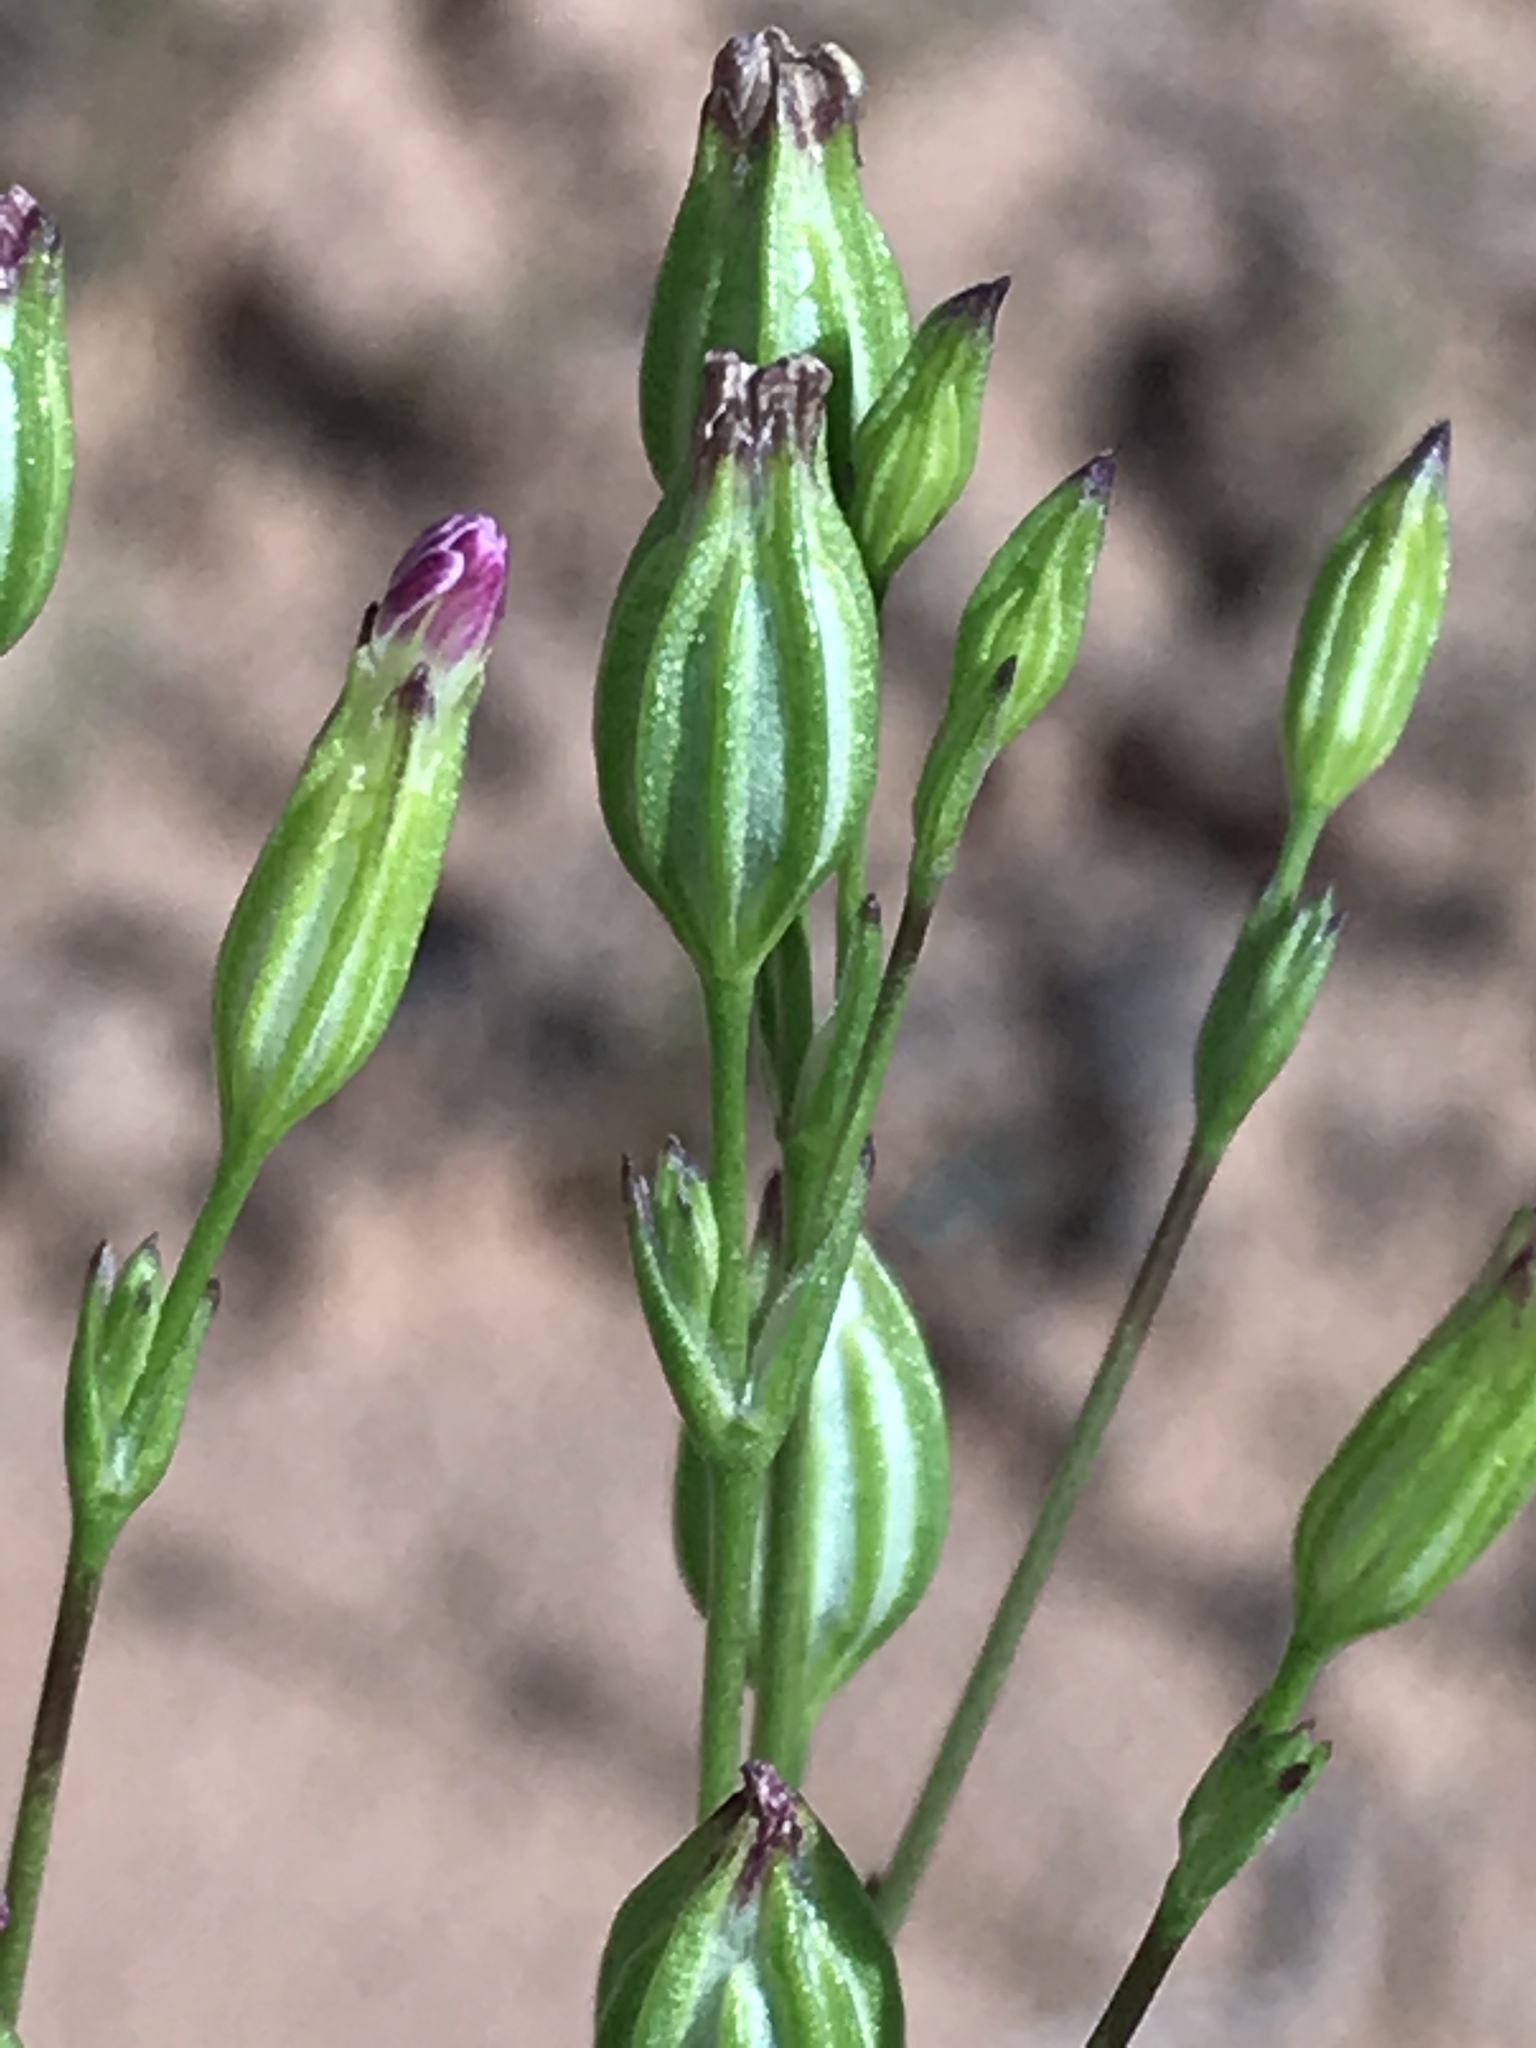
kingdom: Plantae
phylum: Tracheophyta
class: Magnoliopsida
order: Caryophyllales
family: Caryophyllaceae
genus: Silene
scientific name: Silene antirrhina
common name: Sleepy catchfly
